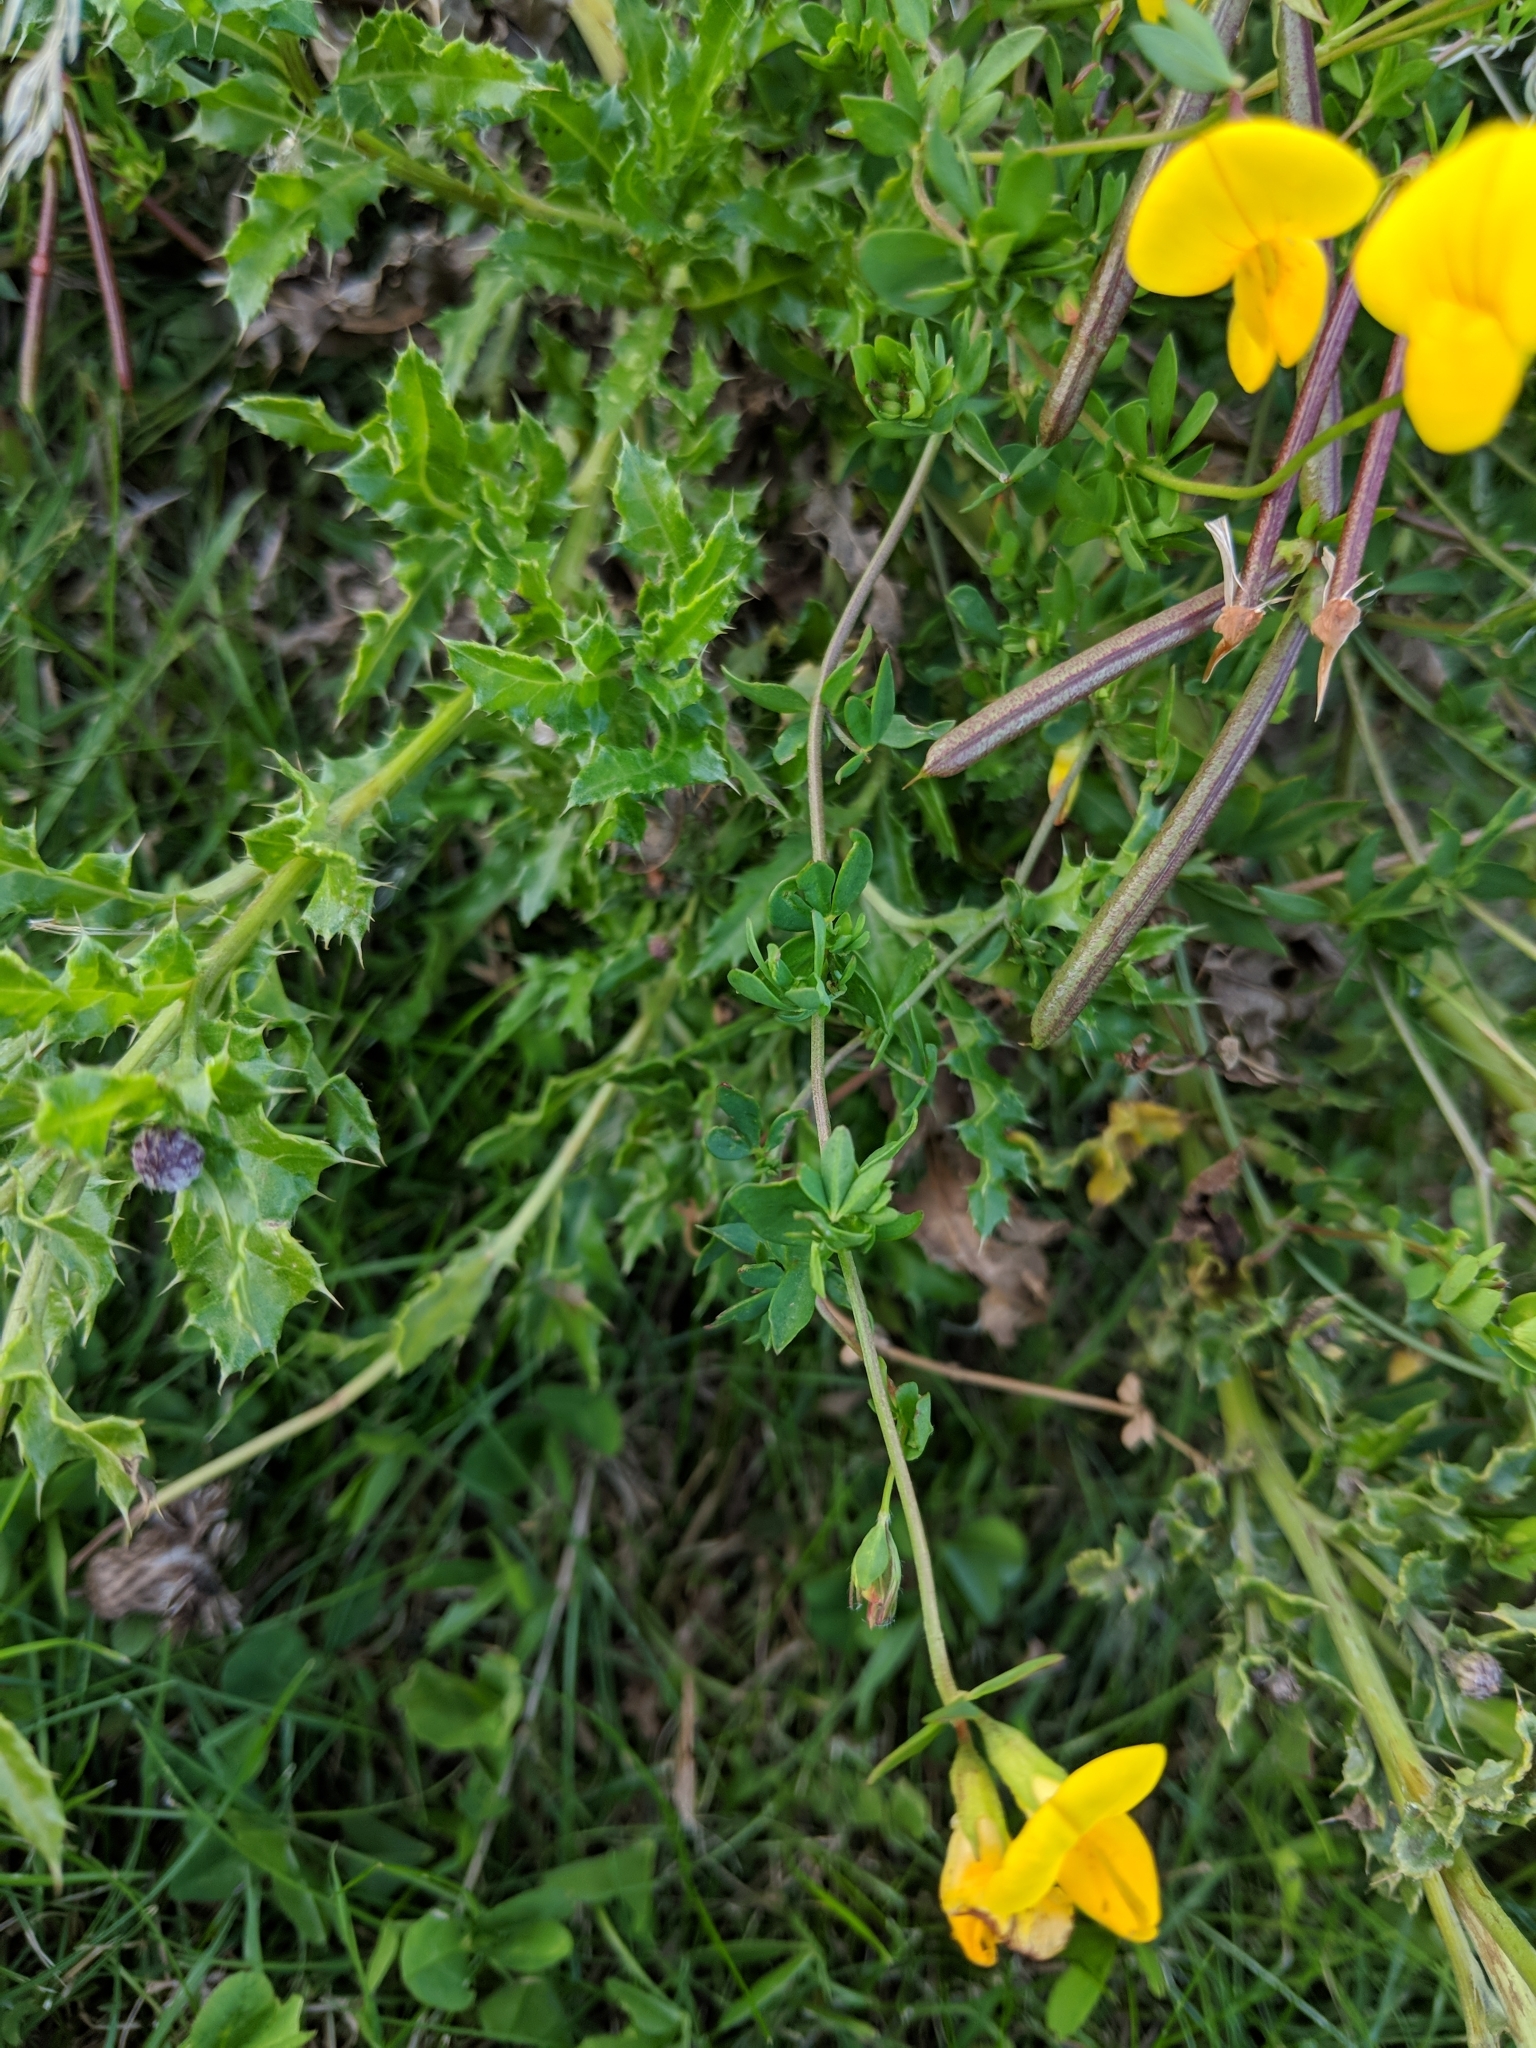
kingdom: Plantae
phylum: Tracheophyta
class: Magnoliopsida
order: Fabales
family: Fabaceae
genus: Lotus
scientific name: Lotus corniculatus
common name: Common bird's-foot-trefoil
